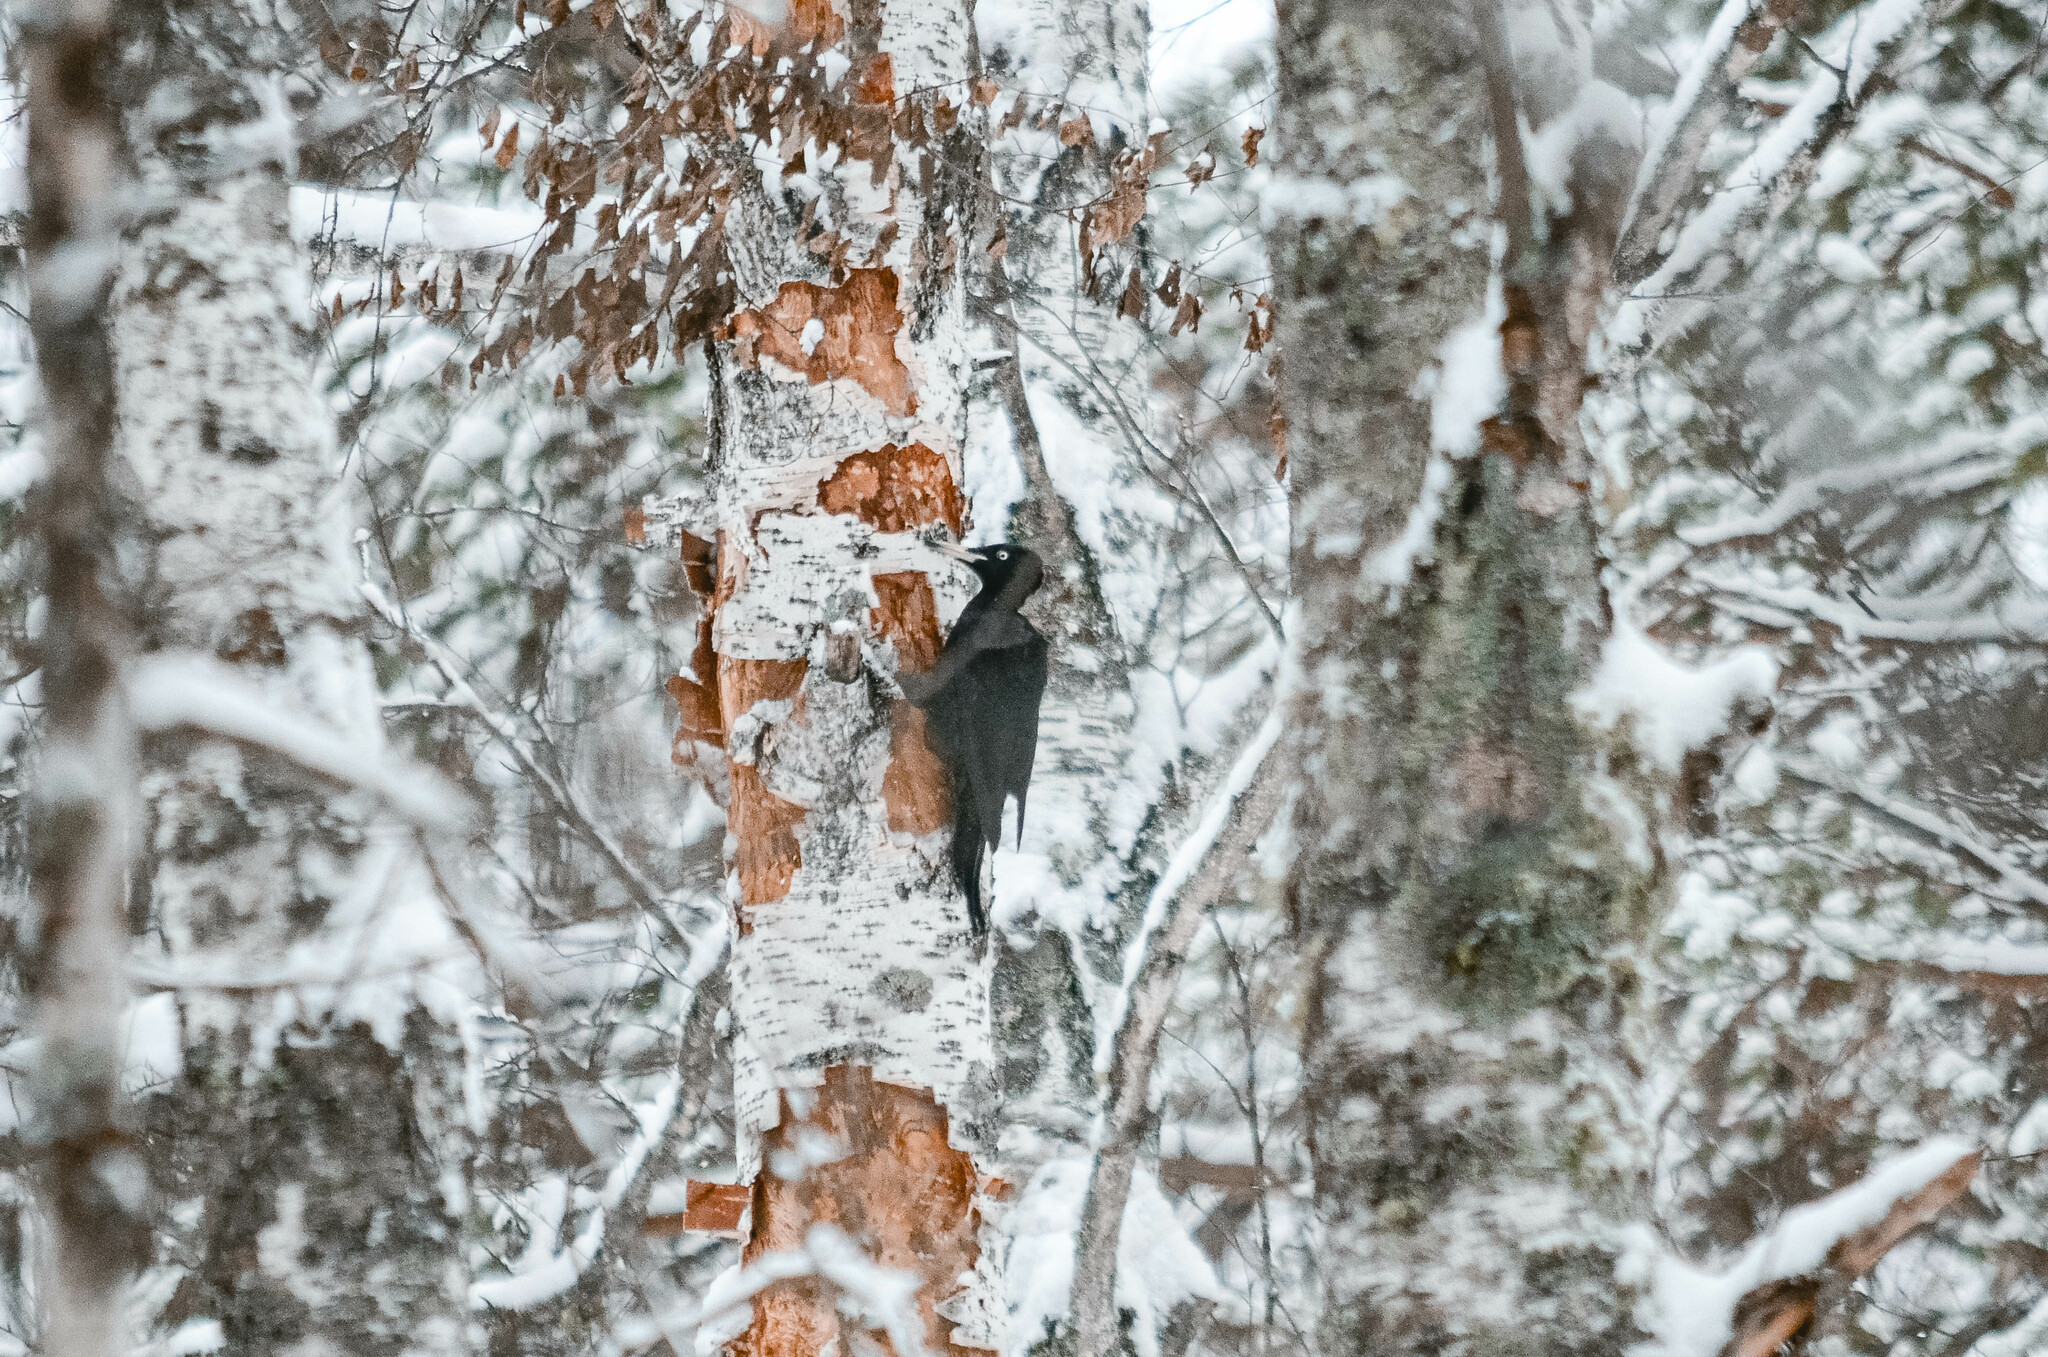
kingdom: Animalia
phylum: Chordata
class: Aves
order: Piciformes
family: Picidae
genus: Dryocopus
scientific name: Dryocopus martius
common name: Black woodpecker
